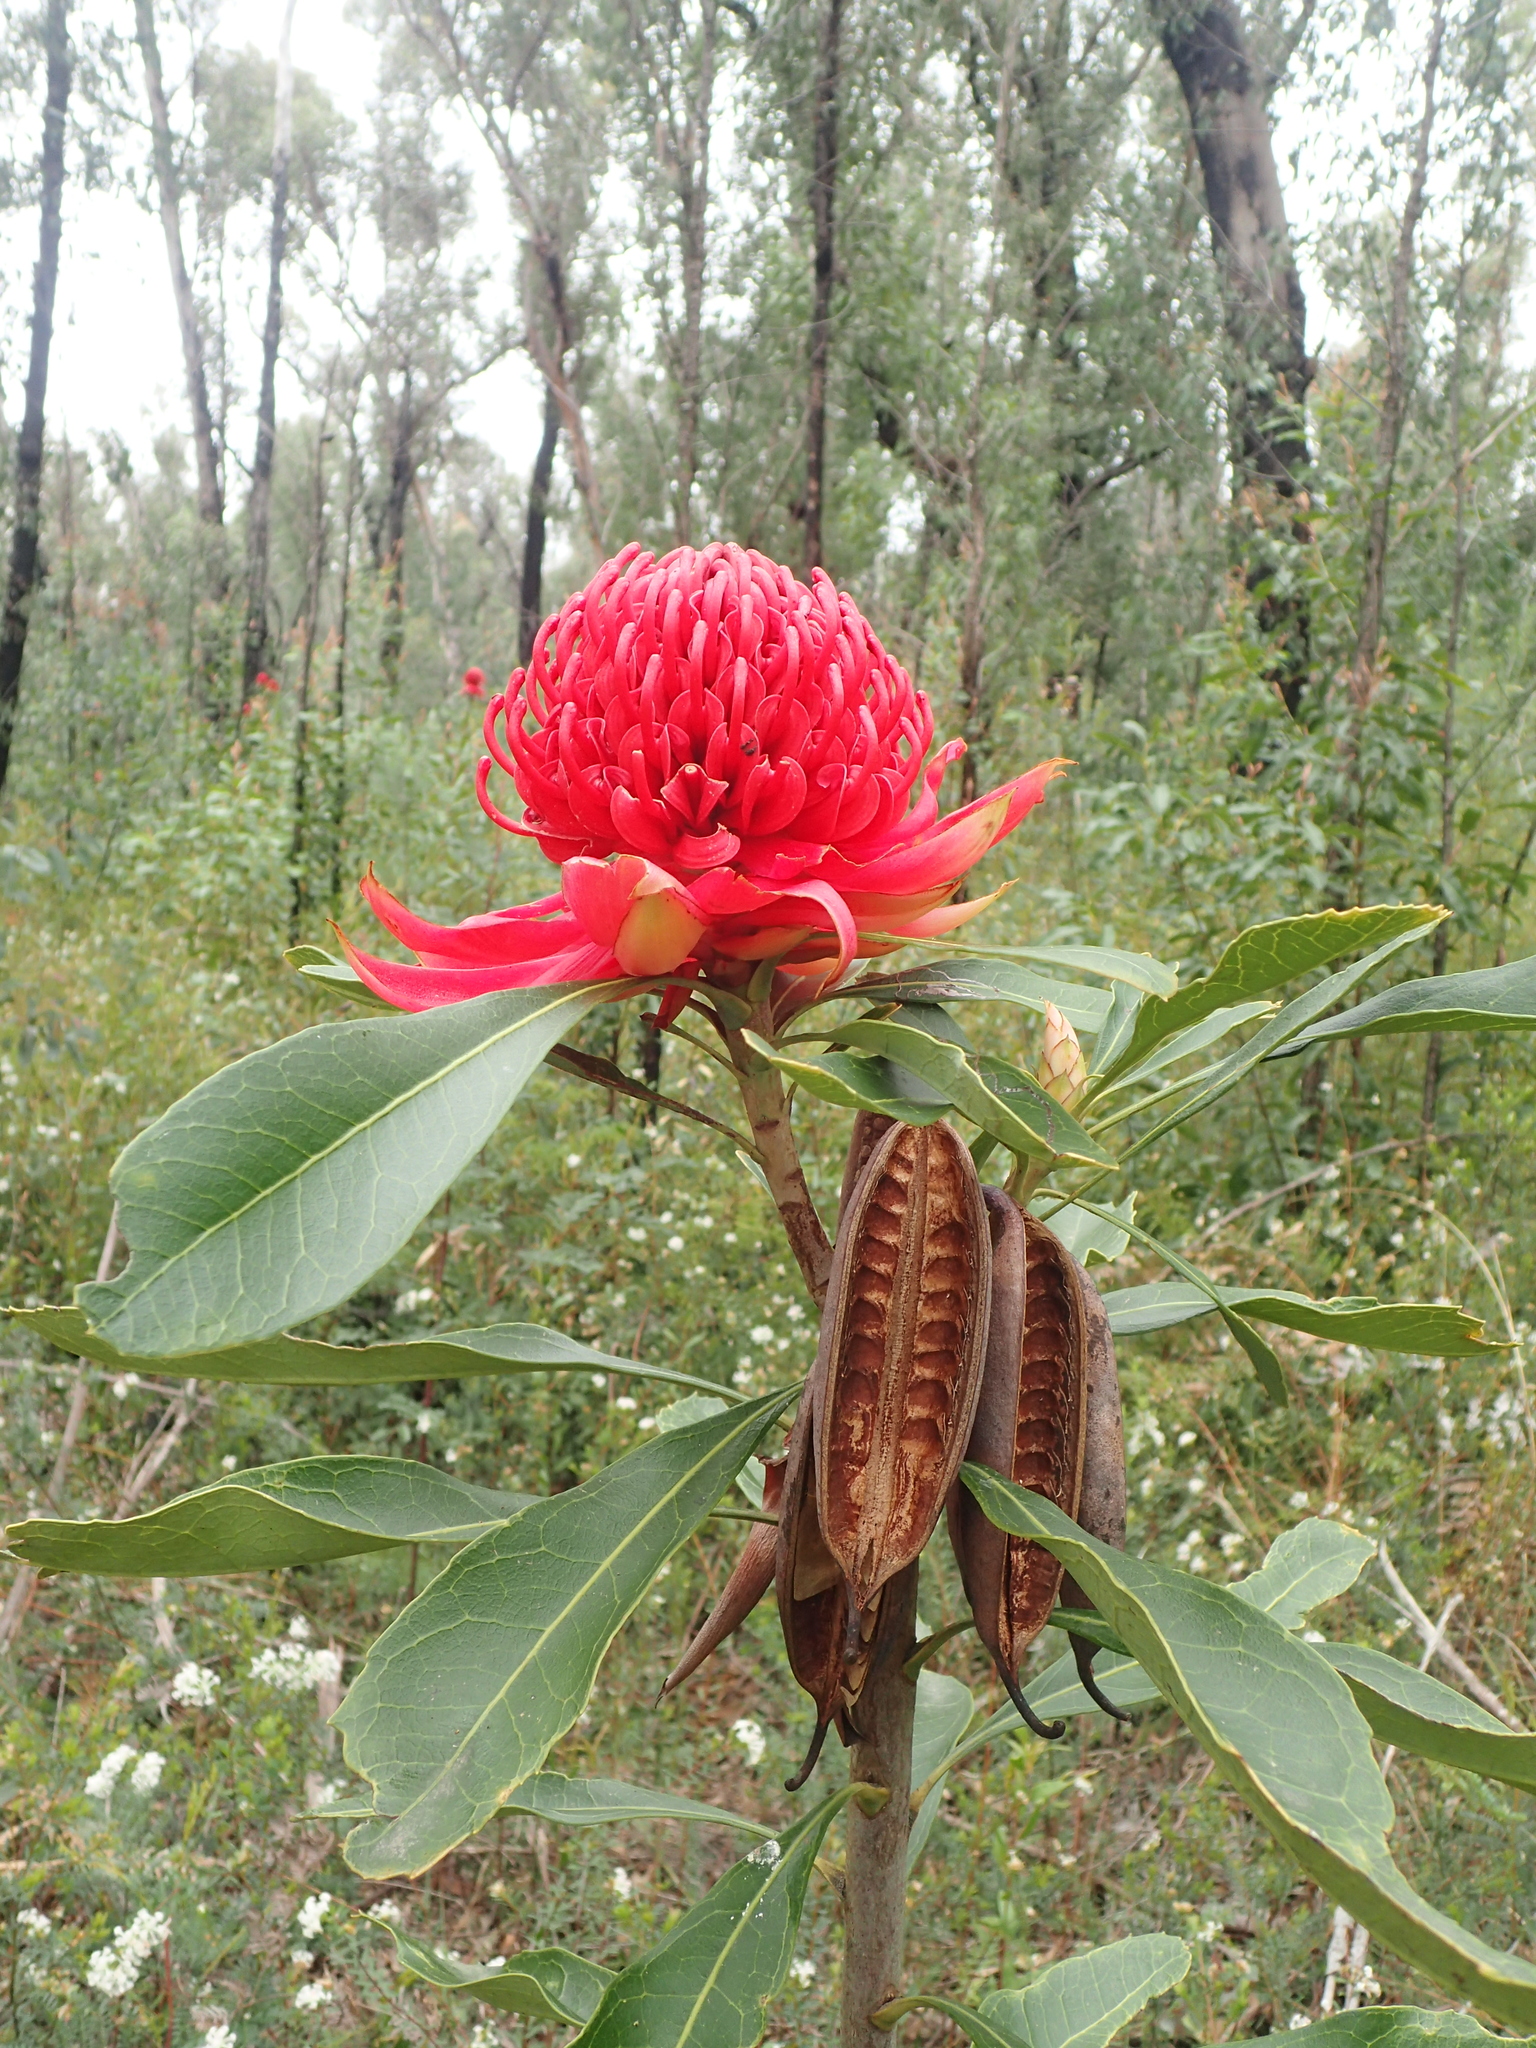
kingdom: Plantae
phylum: Tracheophyta
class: Magnoliopsida
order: Proteales
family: Proteaceae
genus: Telopea
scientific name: Telopea speciosissima
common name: New south wales waratah
